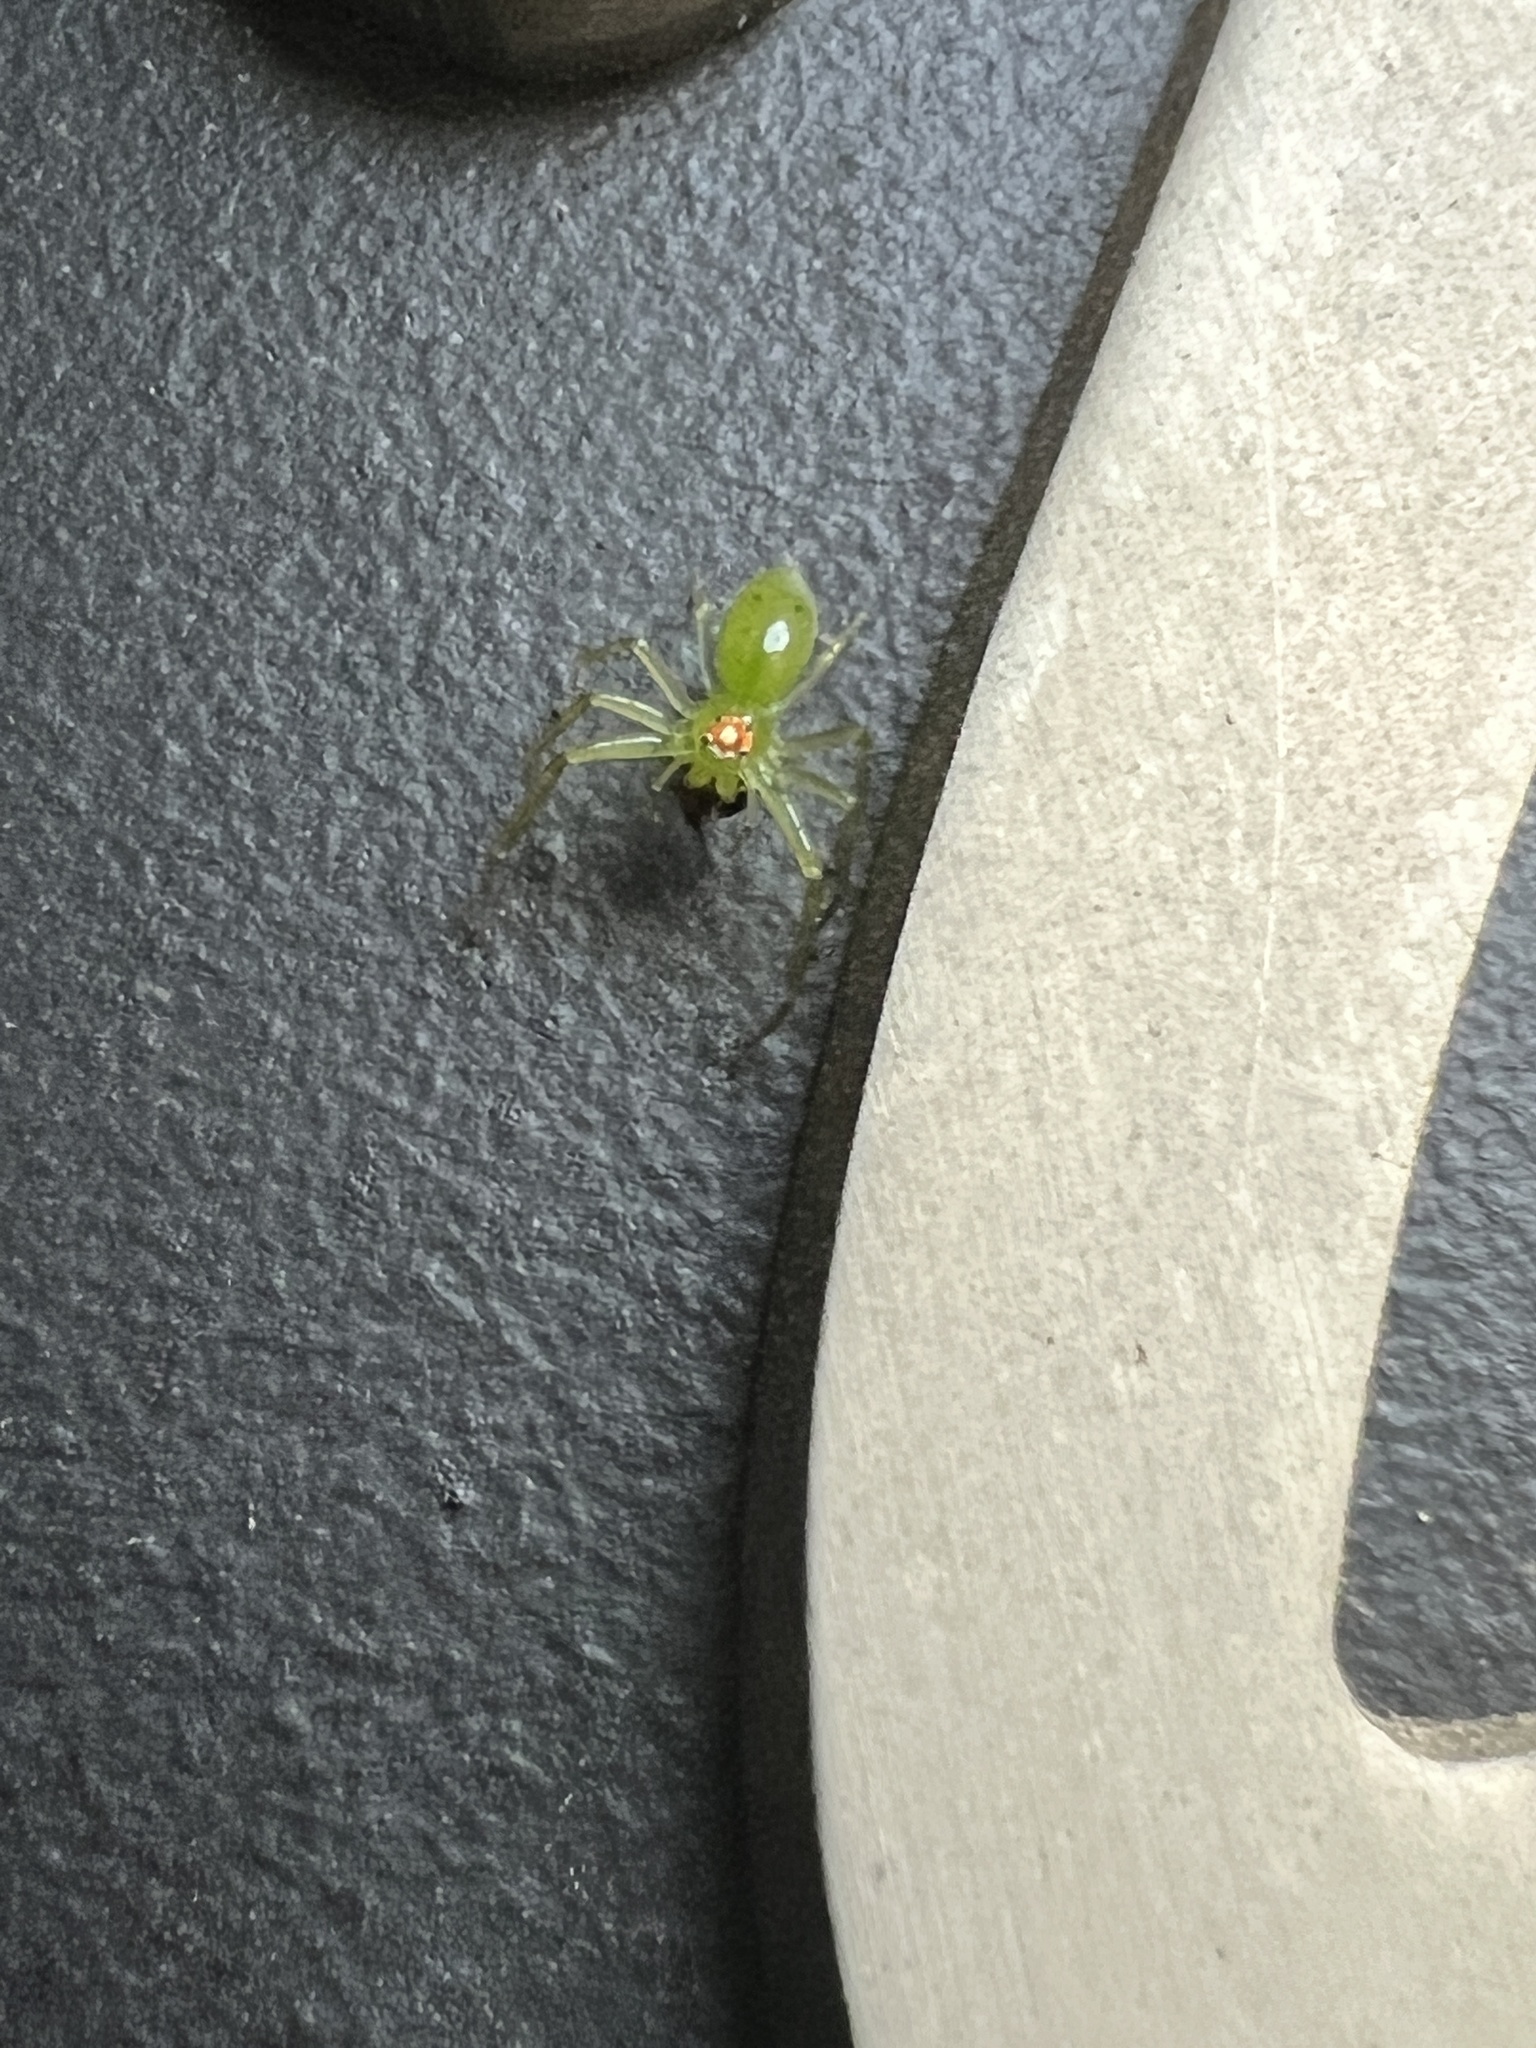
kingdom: Animalia
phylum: Arthropoda
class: Arachnida
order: Araneae
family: Salticidae
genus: Lyssomanes
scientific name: Lyssomanes viridis
